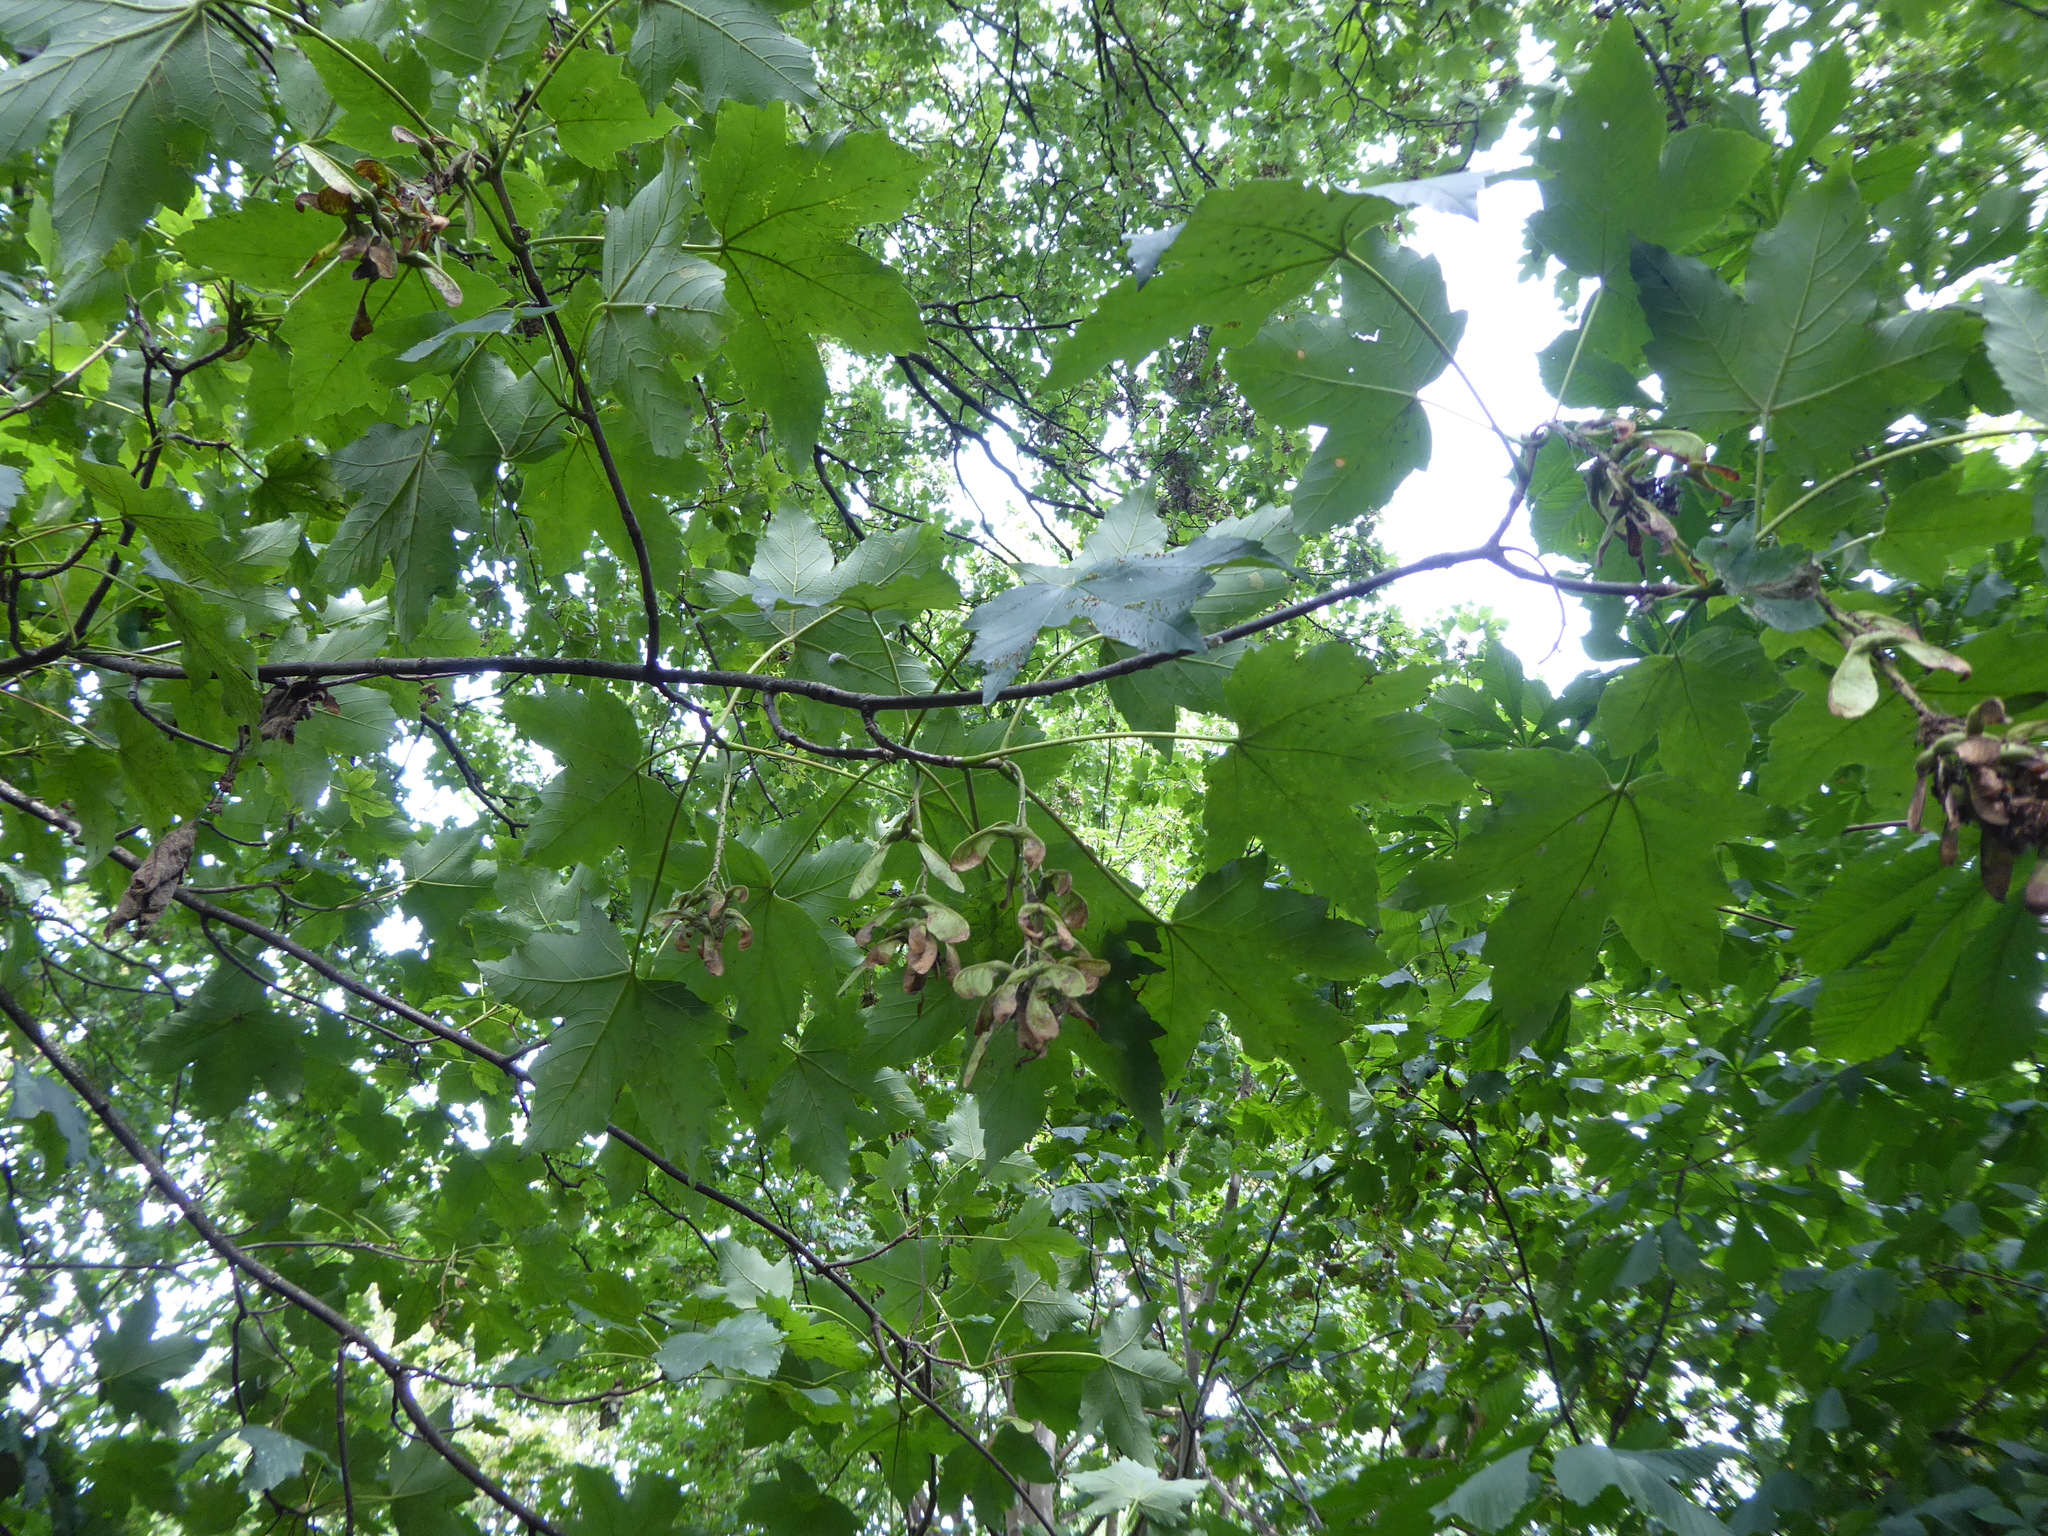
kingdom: Plantae
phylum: Tracheophyta
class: Magnoliopsida
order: Sapindales
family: Sapindaceae
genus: Acer
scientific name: Acer pseudoplatanus
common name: Sycamore
